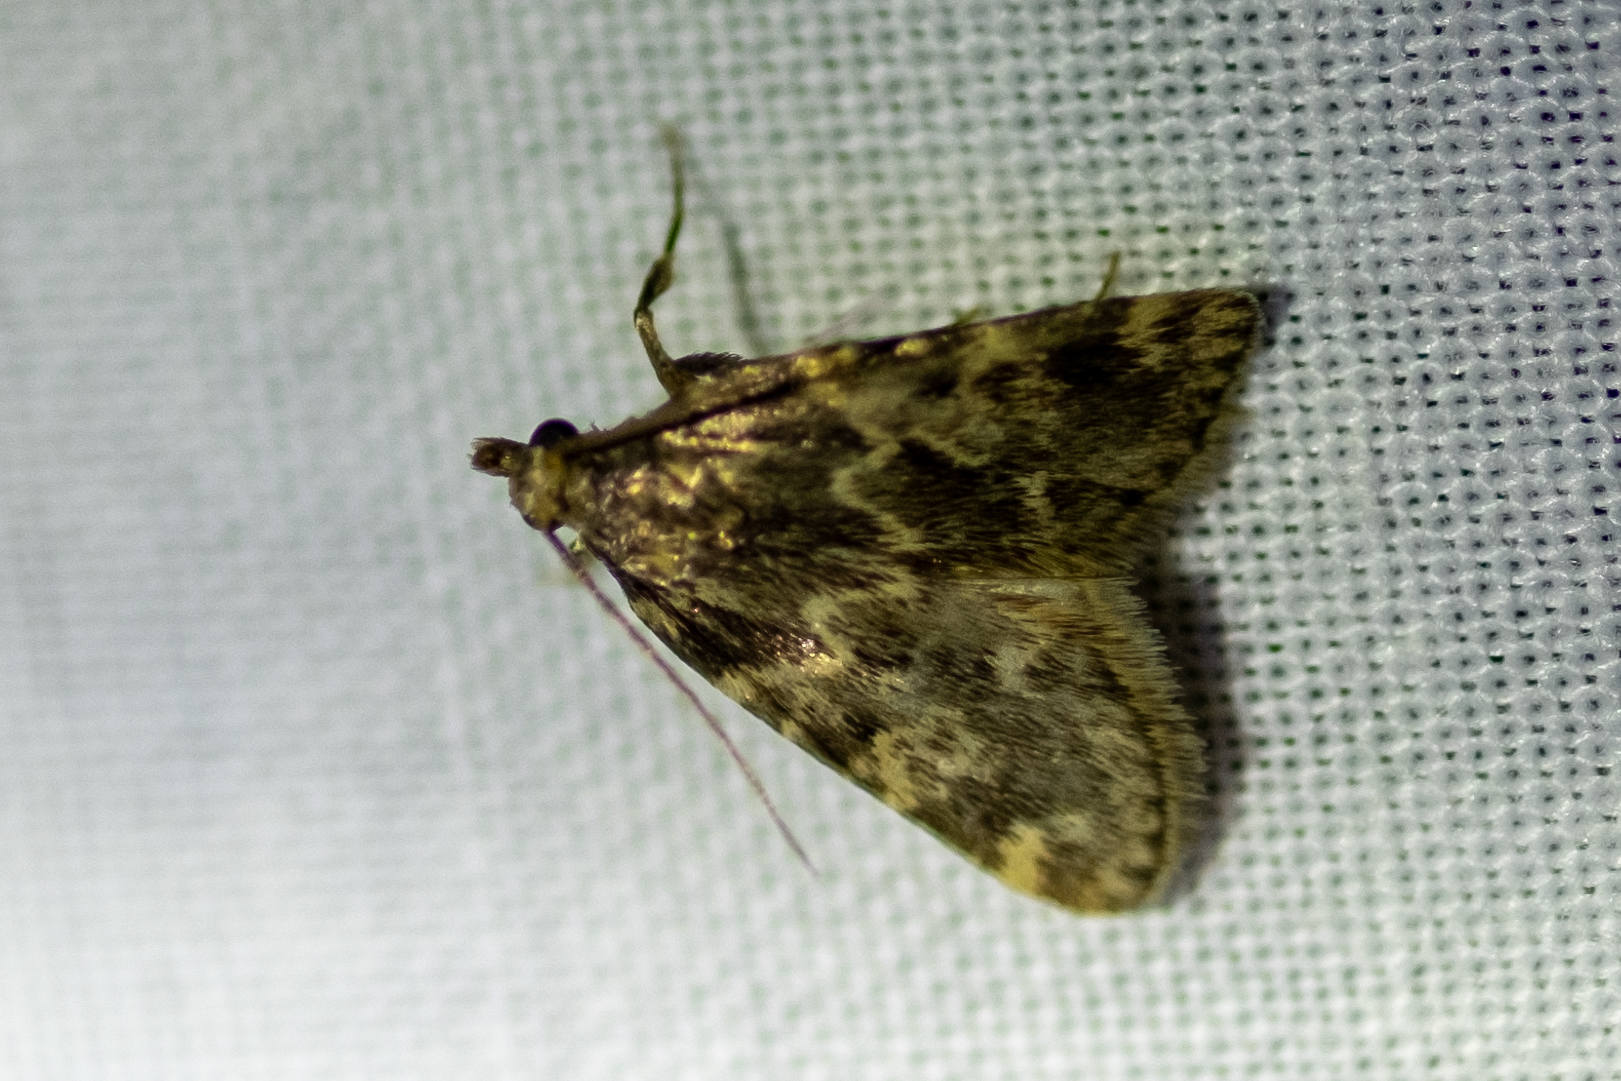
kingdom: Animalia
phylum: Arthropoda
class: Insecta
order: Lepidoptera
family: Pyralidae
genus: Aglossa
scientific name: Aglossa caprealis
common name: Small tabby
